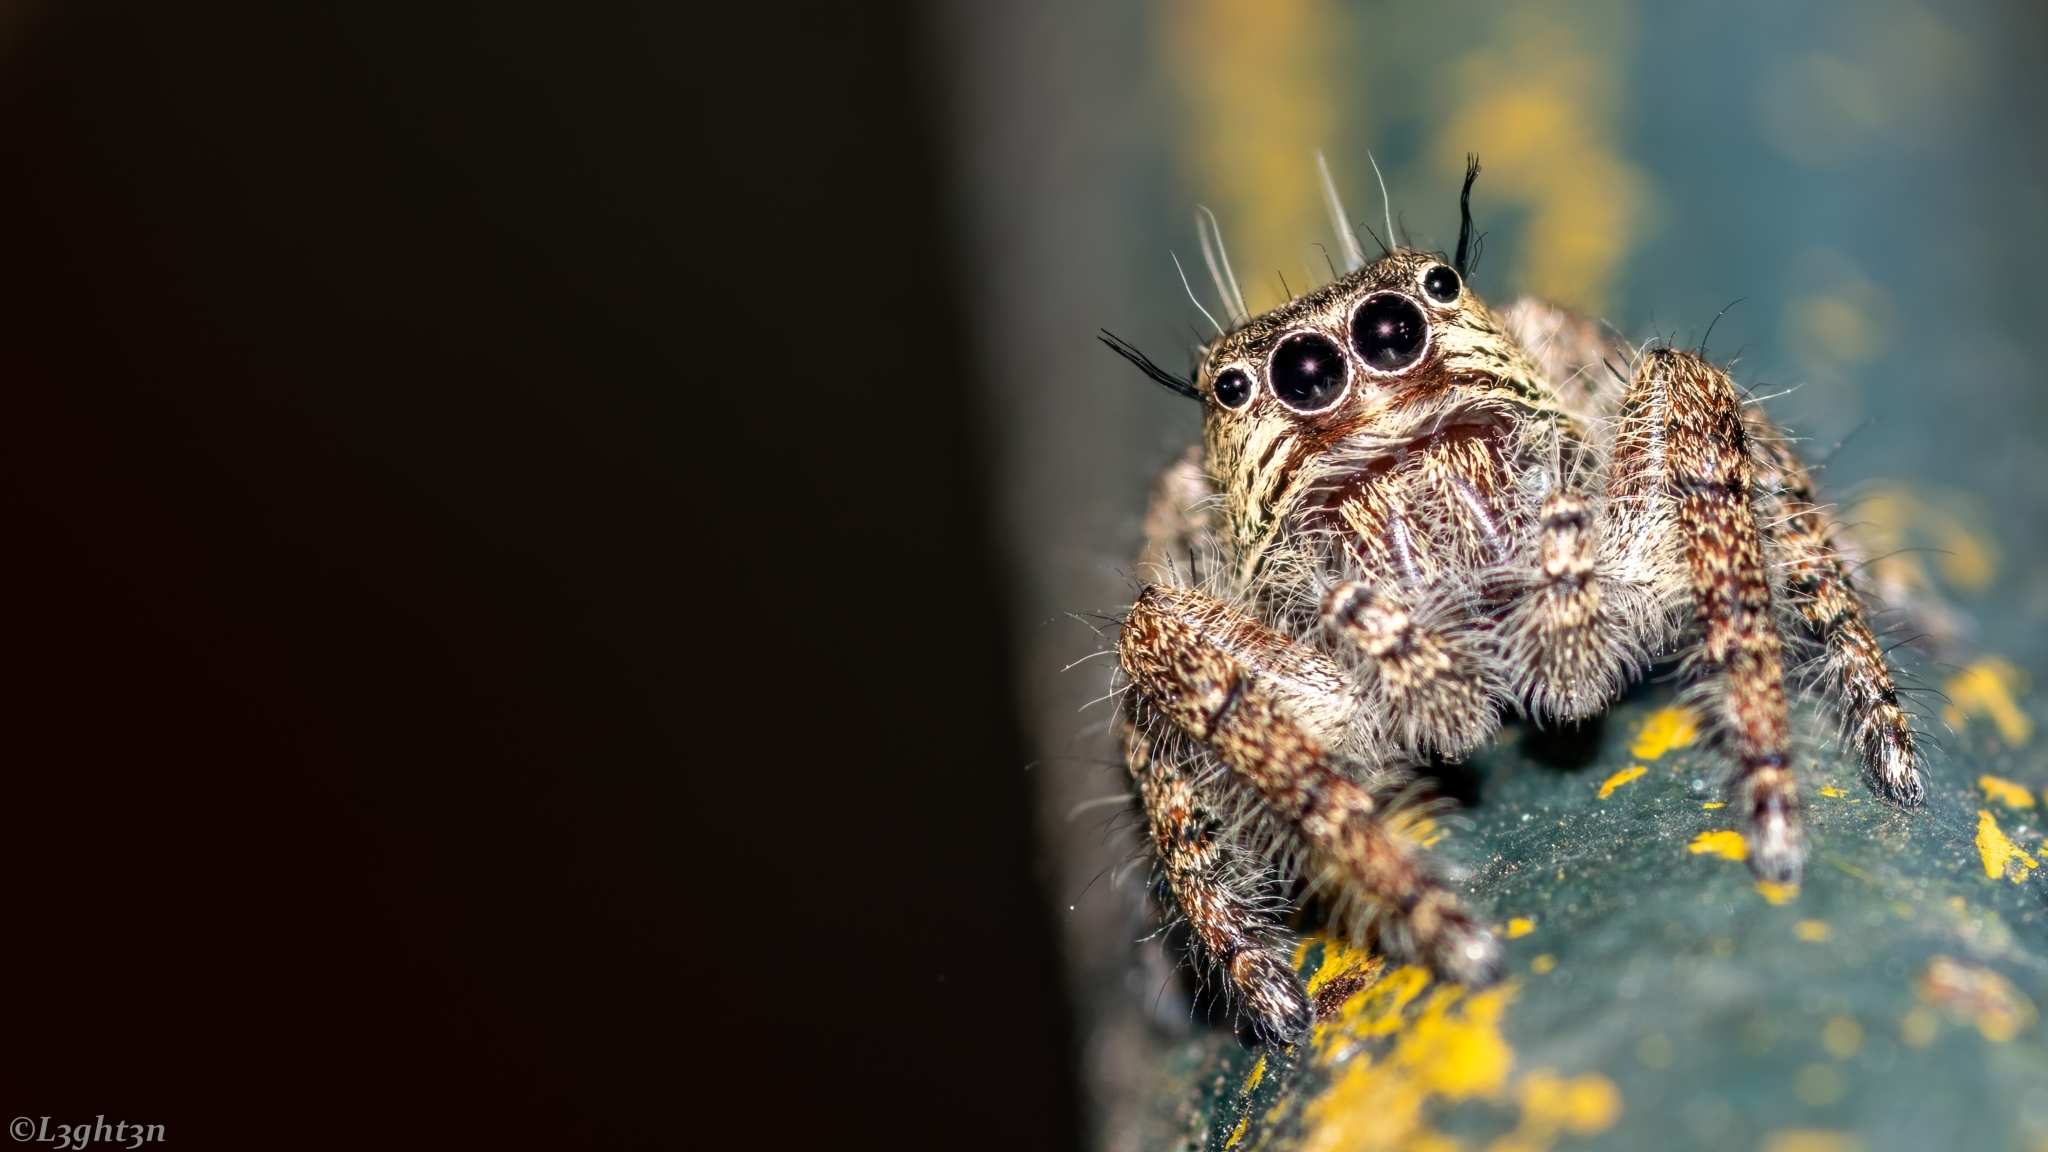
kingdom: Animalia
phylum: Arthropoda
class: Arachnida
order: Araneae
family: Salticidae
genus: Hyllus
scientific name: Hyllus brevitarsis
